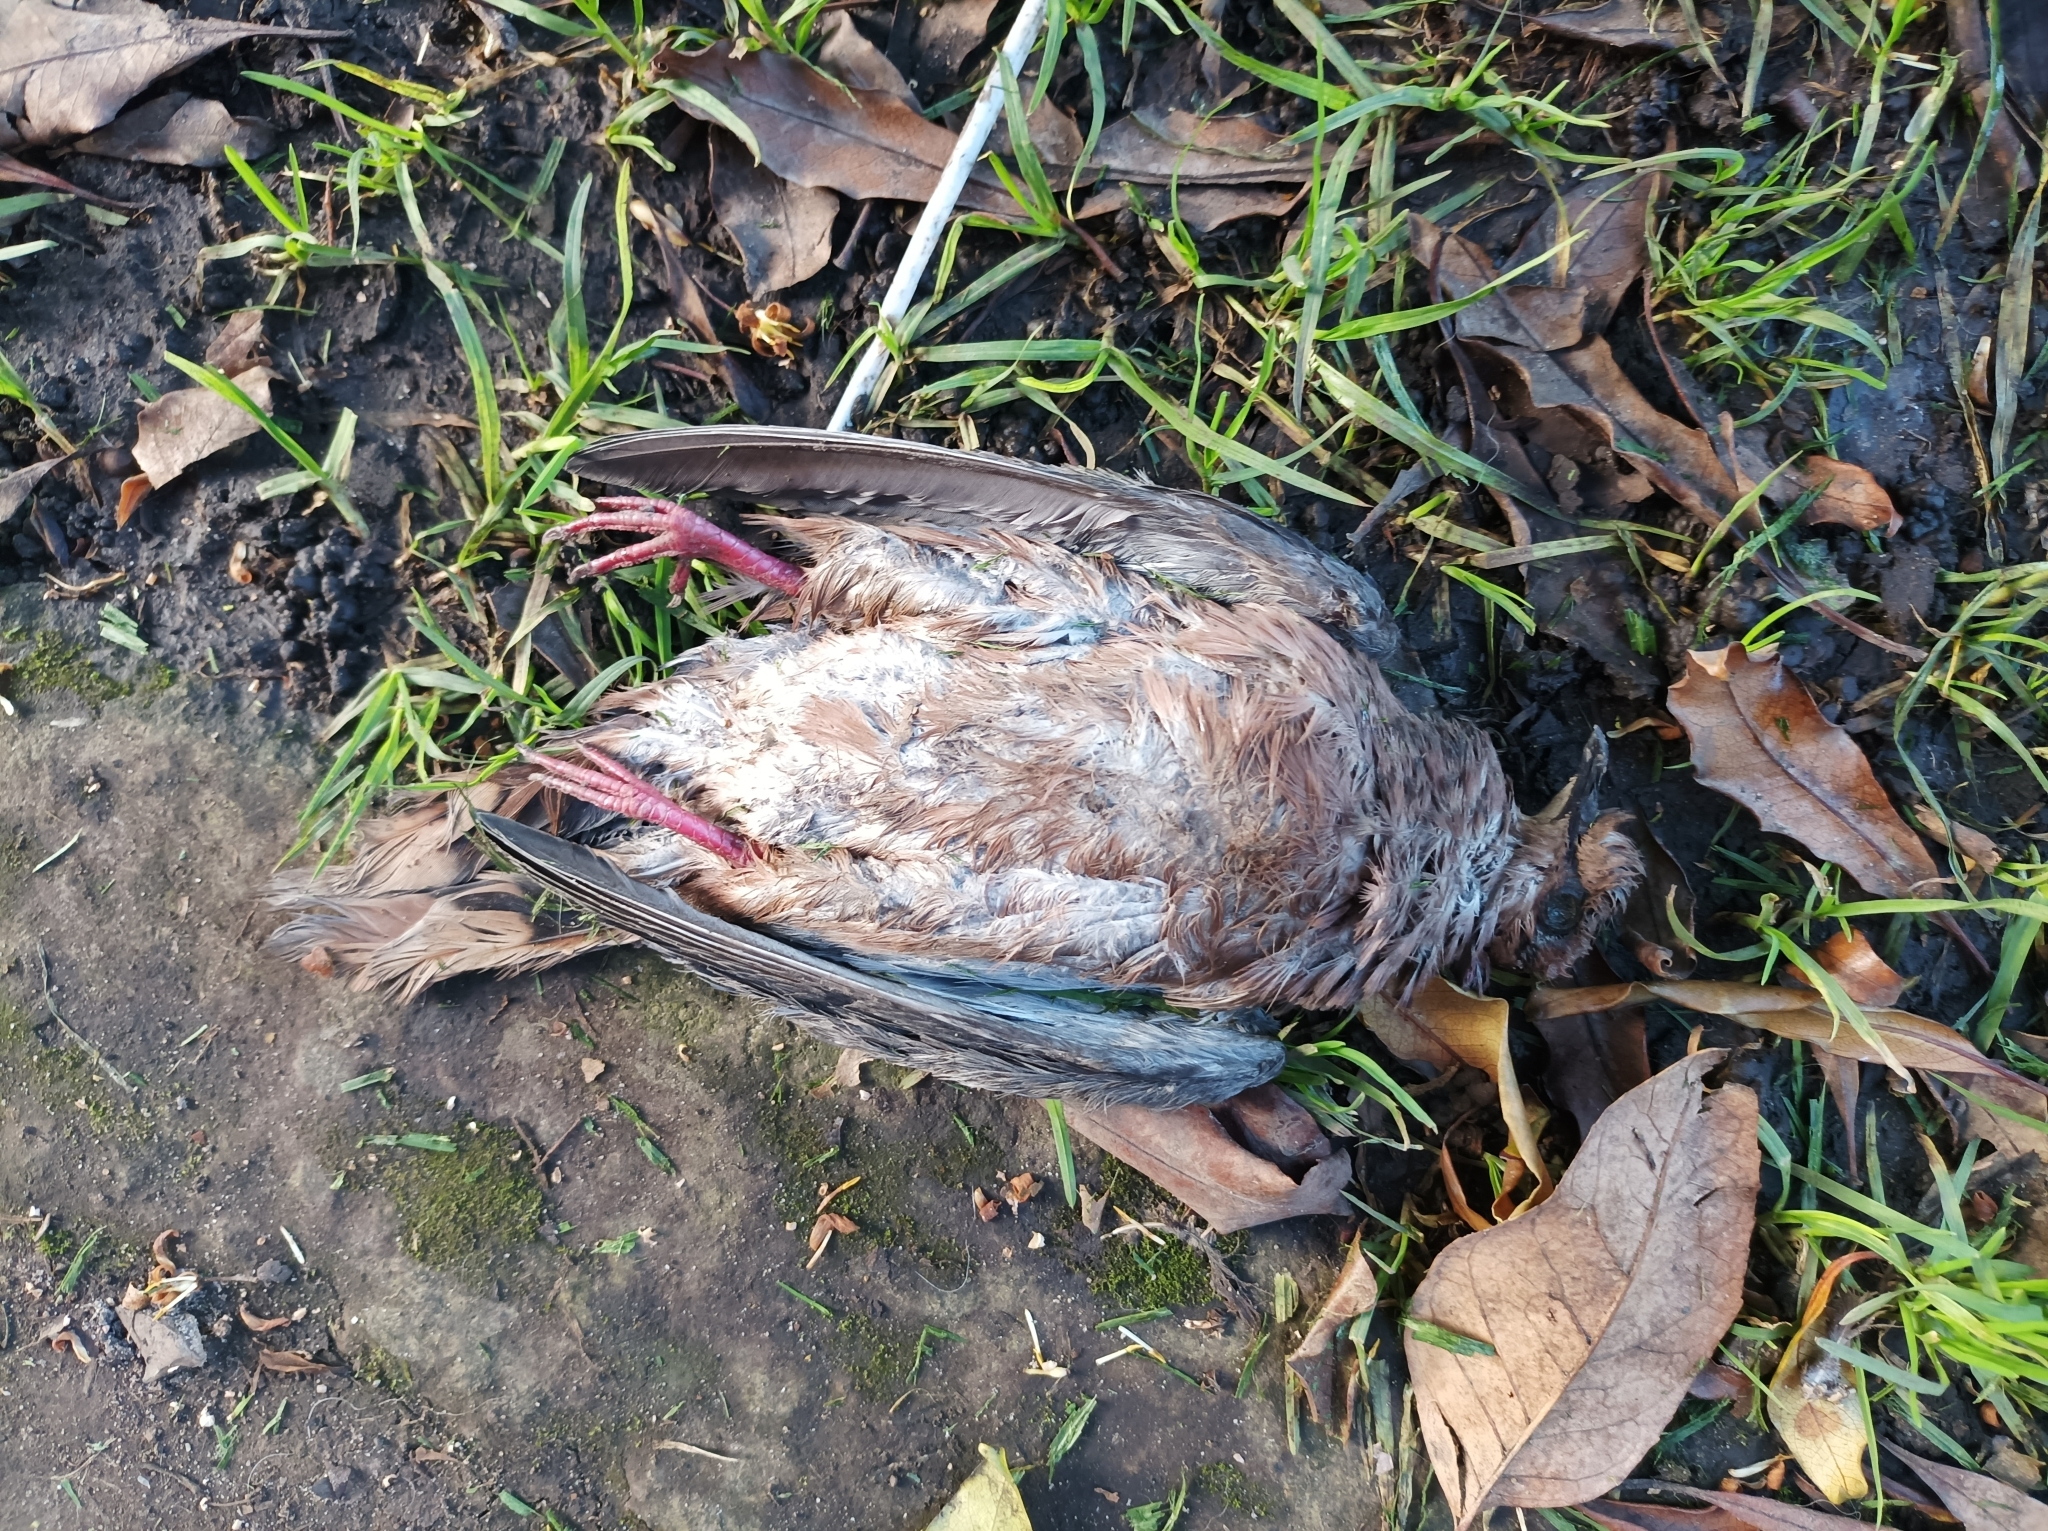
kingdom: Animalia
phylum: Chordata
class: Aves
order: Columbiformes
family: Columbidae
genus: Zenaida
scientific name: Zenaida auriculata
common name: Eared dove
